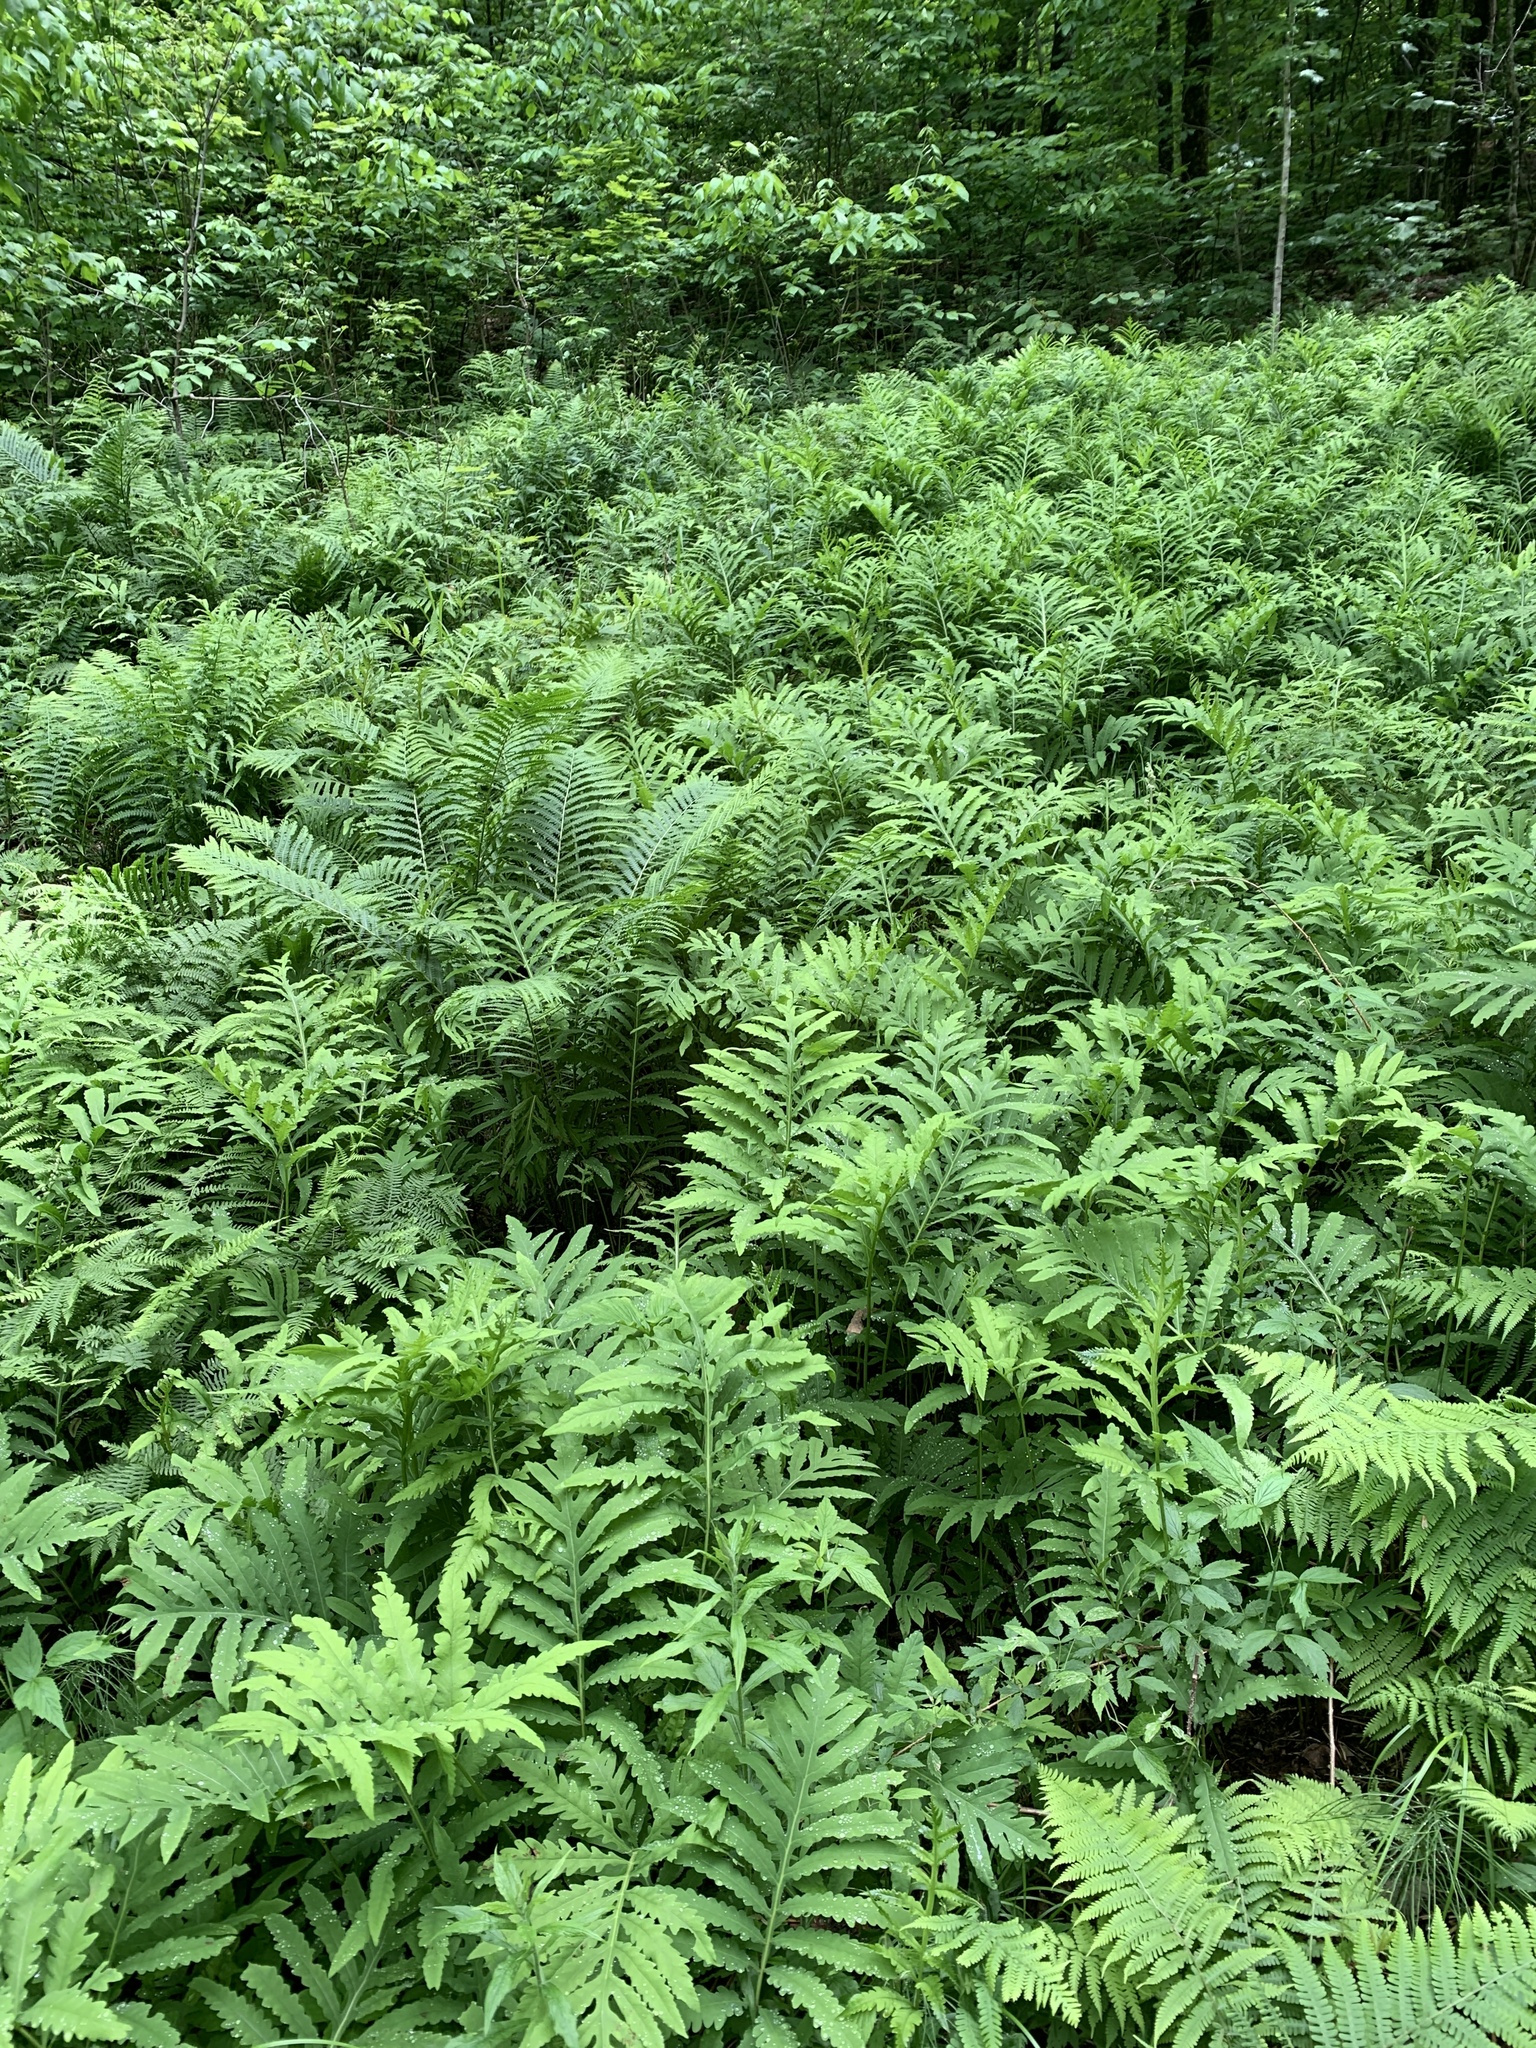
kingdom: Plantae
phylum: Tracheophyta
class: Polypodiopsida
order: Polypodiales
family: Onocleaceae
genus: Onoclea
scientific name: Onoclea sensibilis
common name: Sensitive fern
